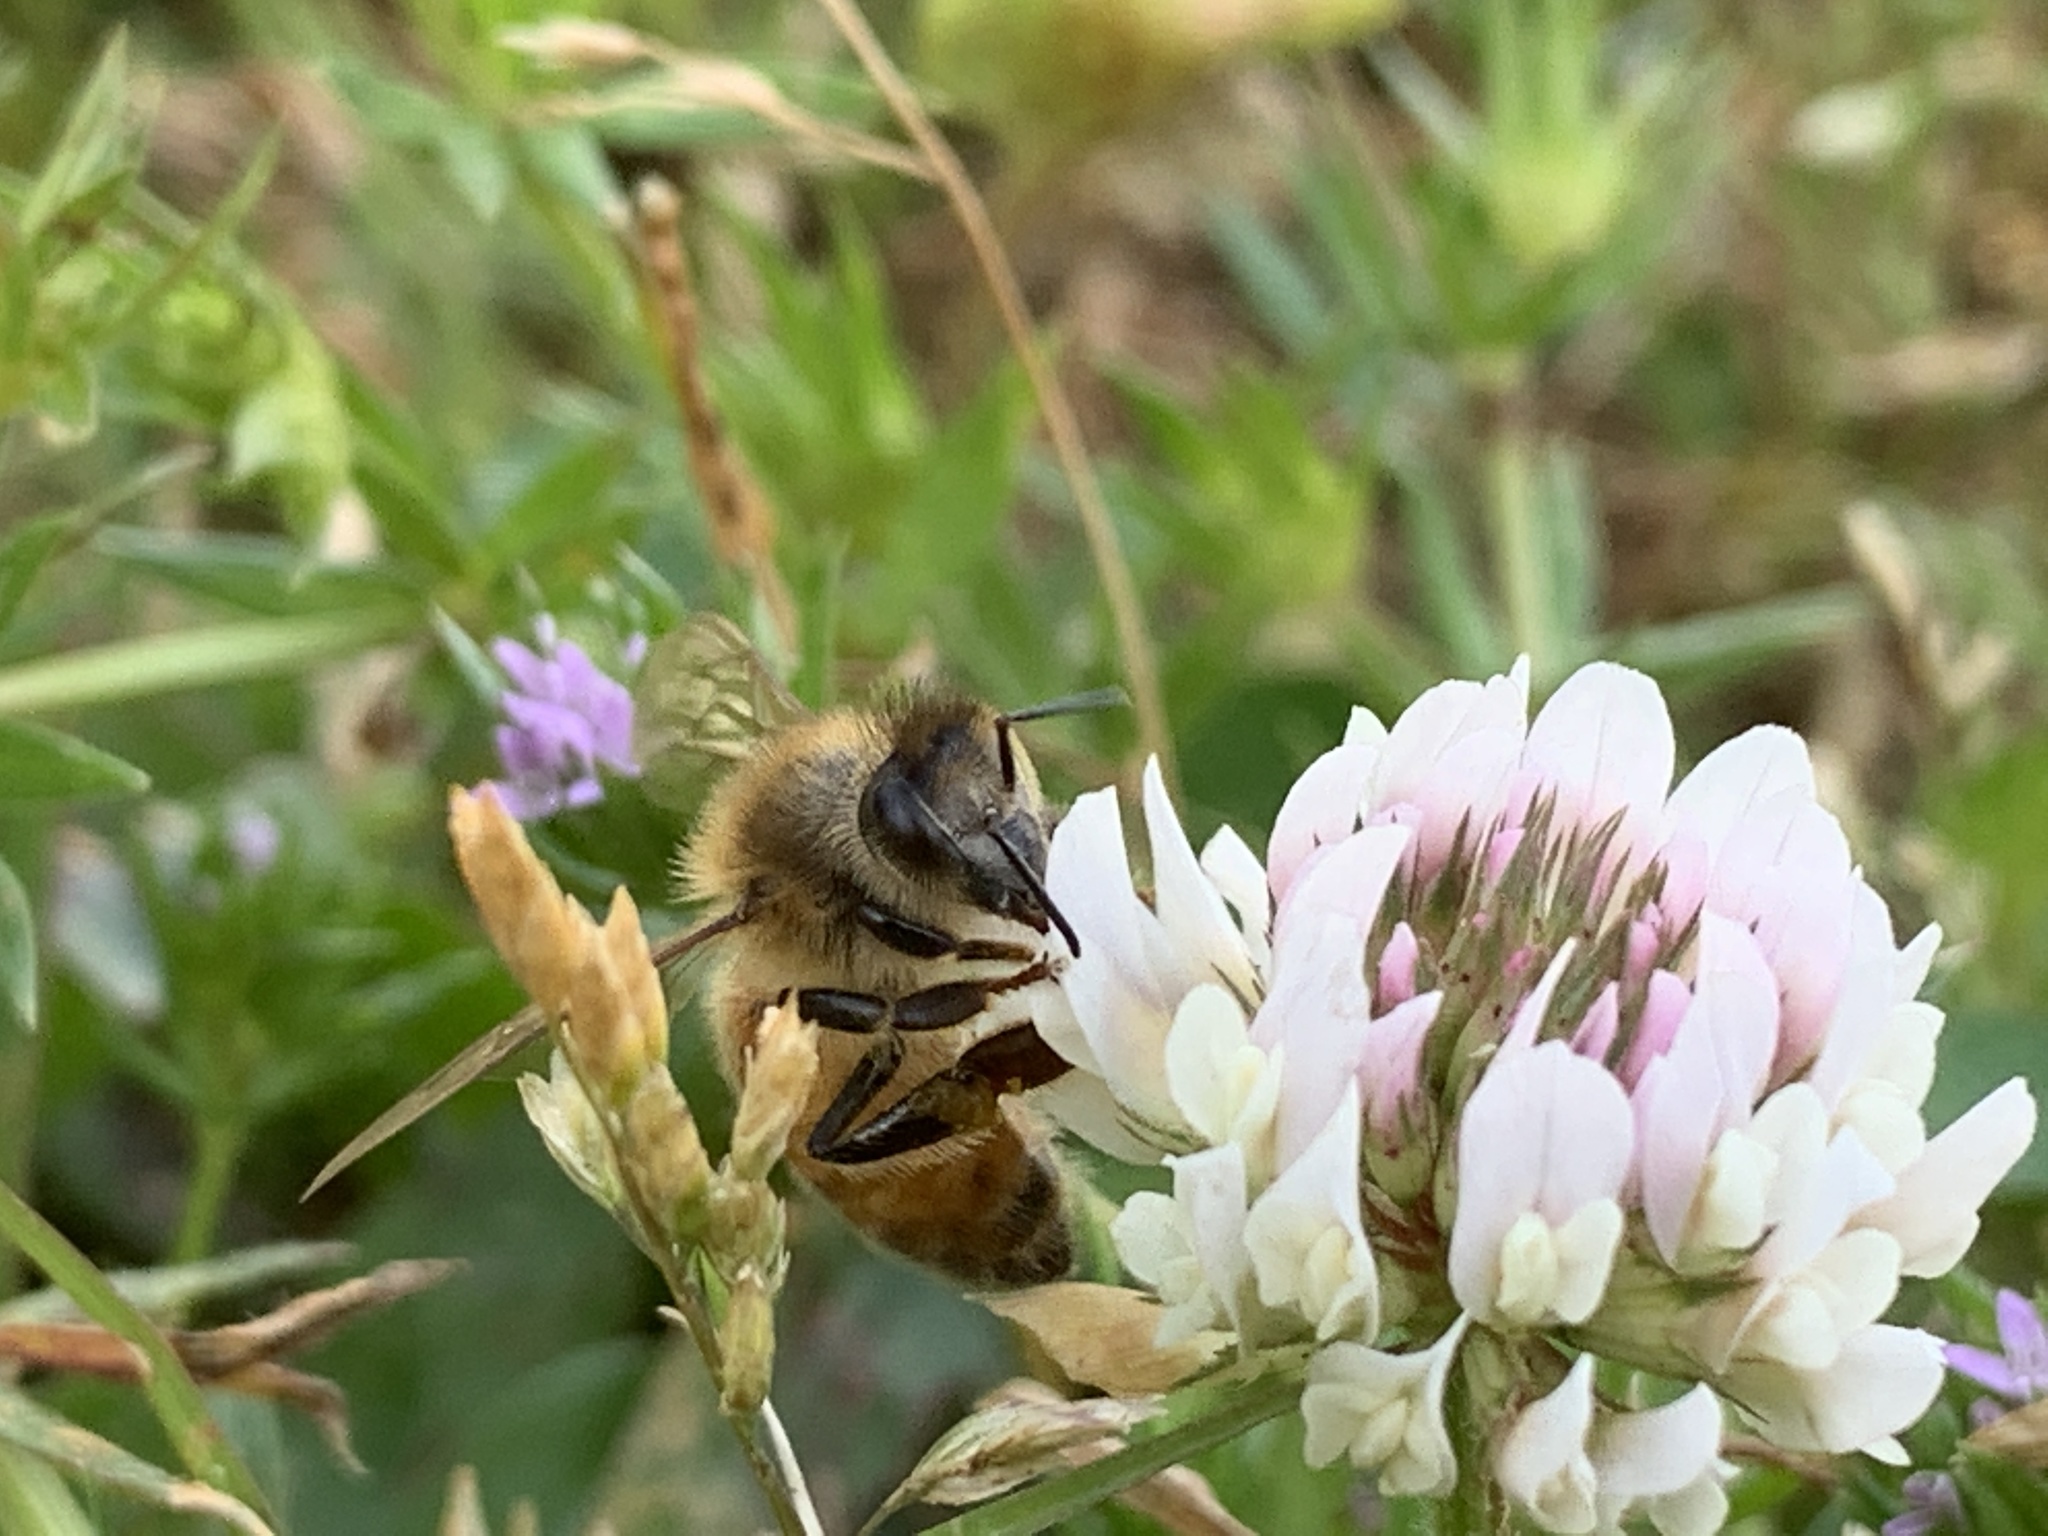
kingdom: Animalia
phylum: Arthropoda
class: Insecta
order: Hymenoptera
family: Apidae
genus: Apis
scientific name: Apis mellifera
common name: Honey bee
